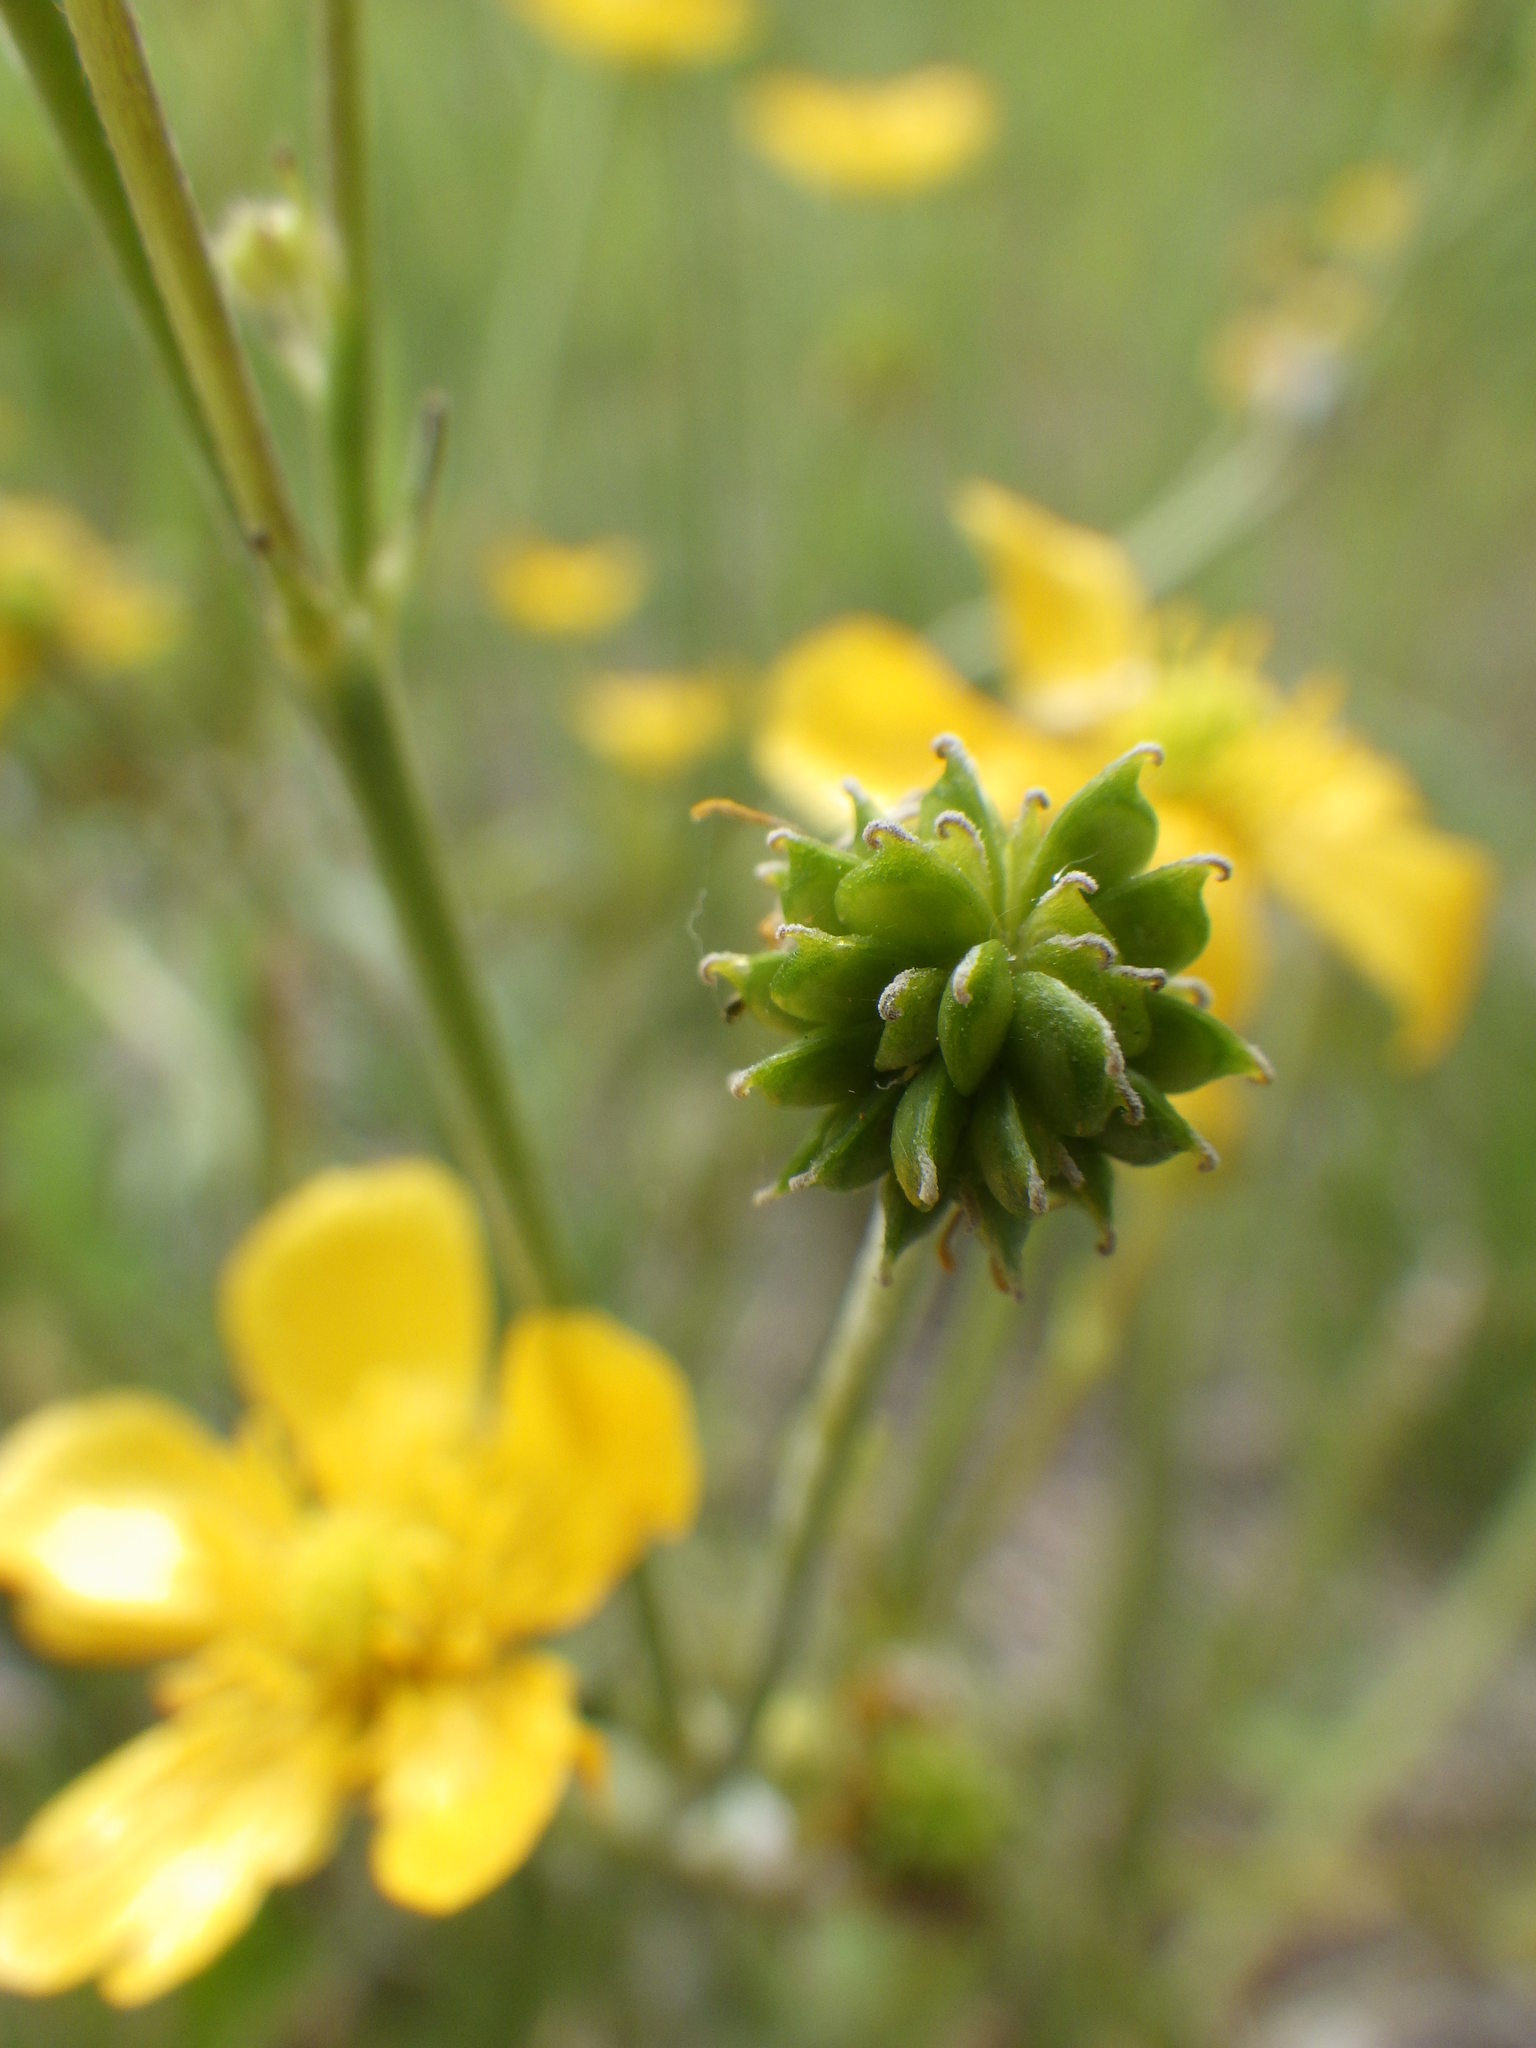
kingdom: Plantae
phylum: Tracheophyta
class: Magnoliopsida
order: Ranunculales
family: Ranunculaceae
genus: Ranunculus
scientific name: Ranunculus acris
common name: Meadow buttercup
